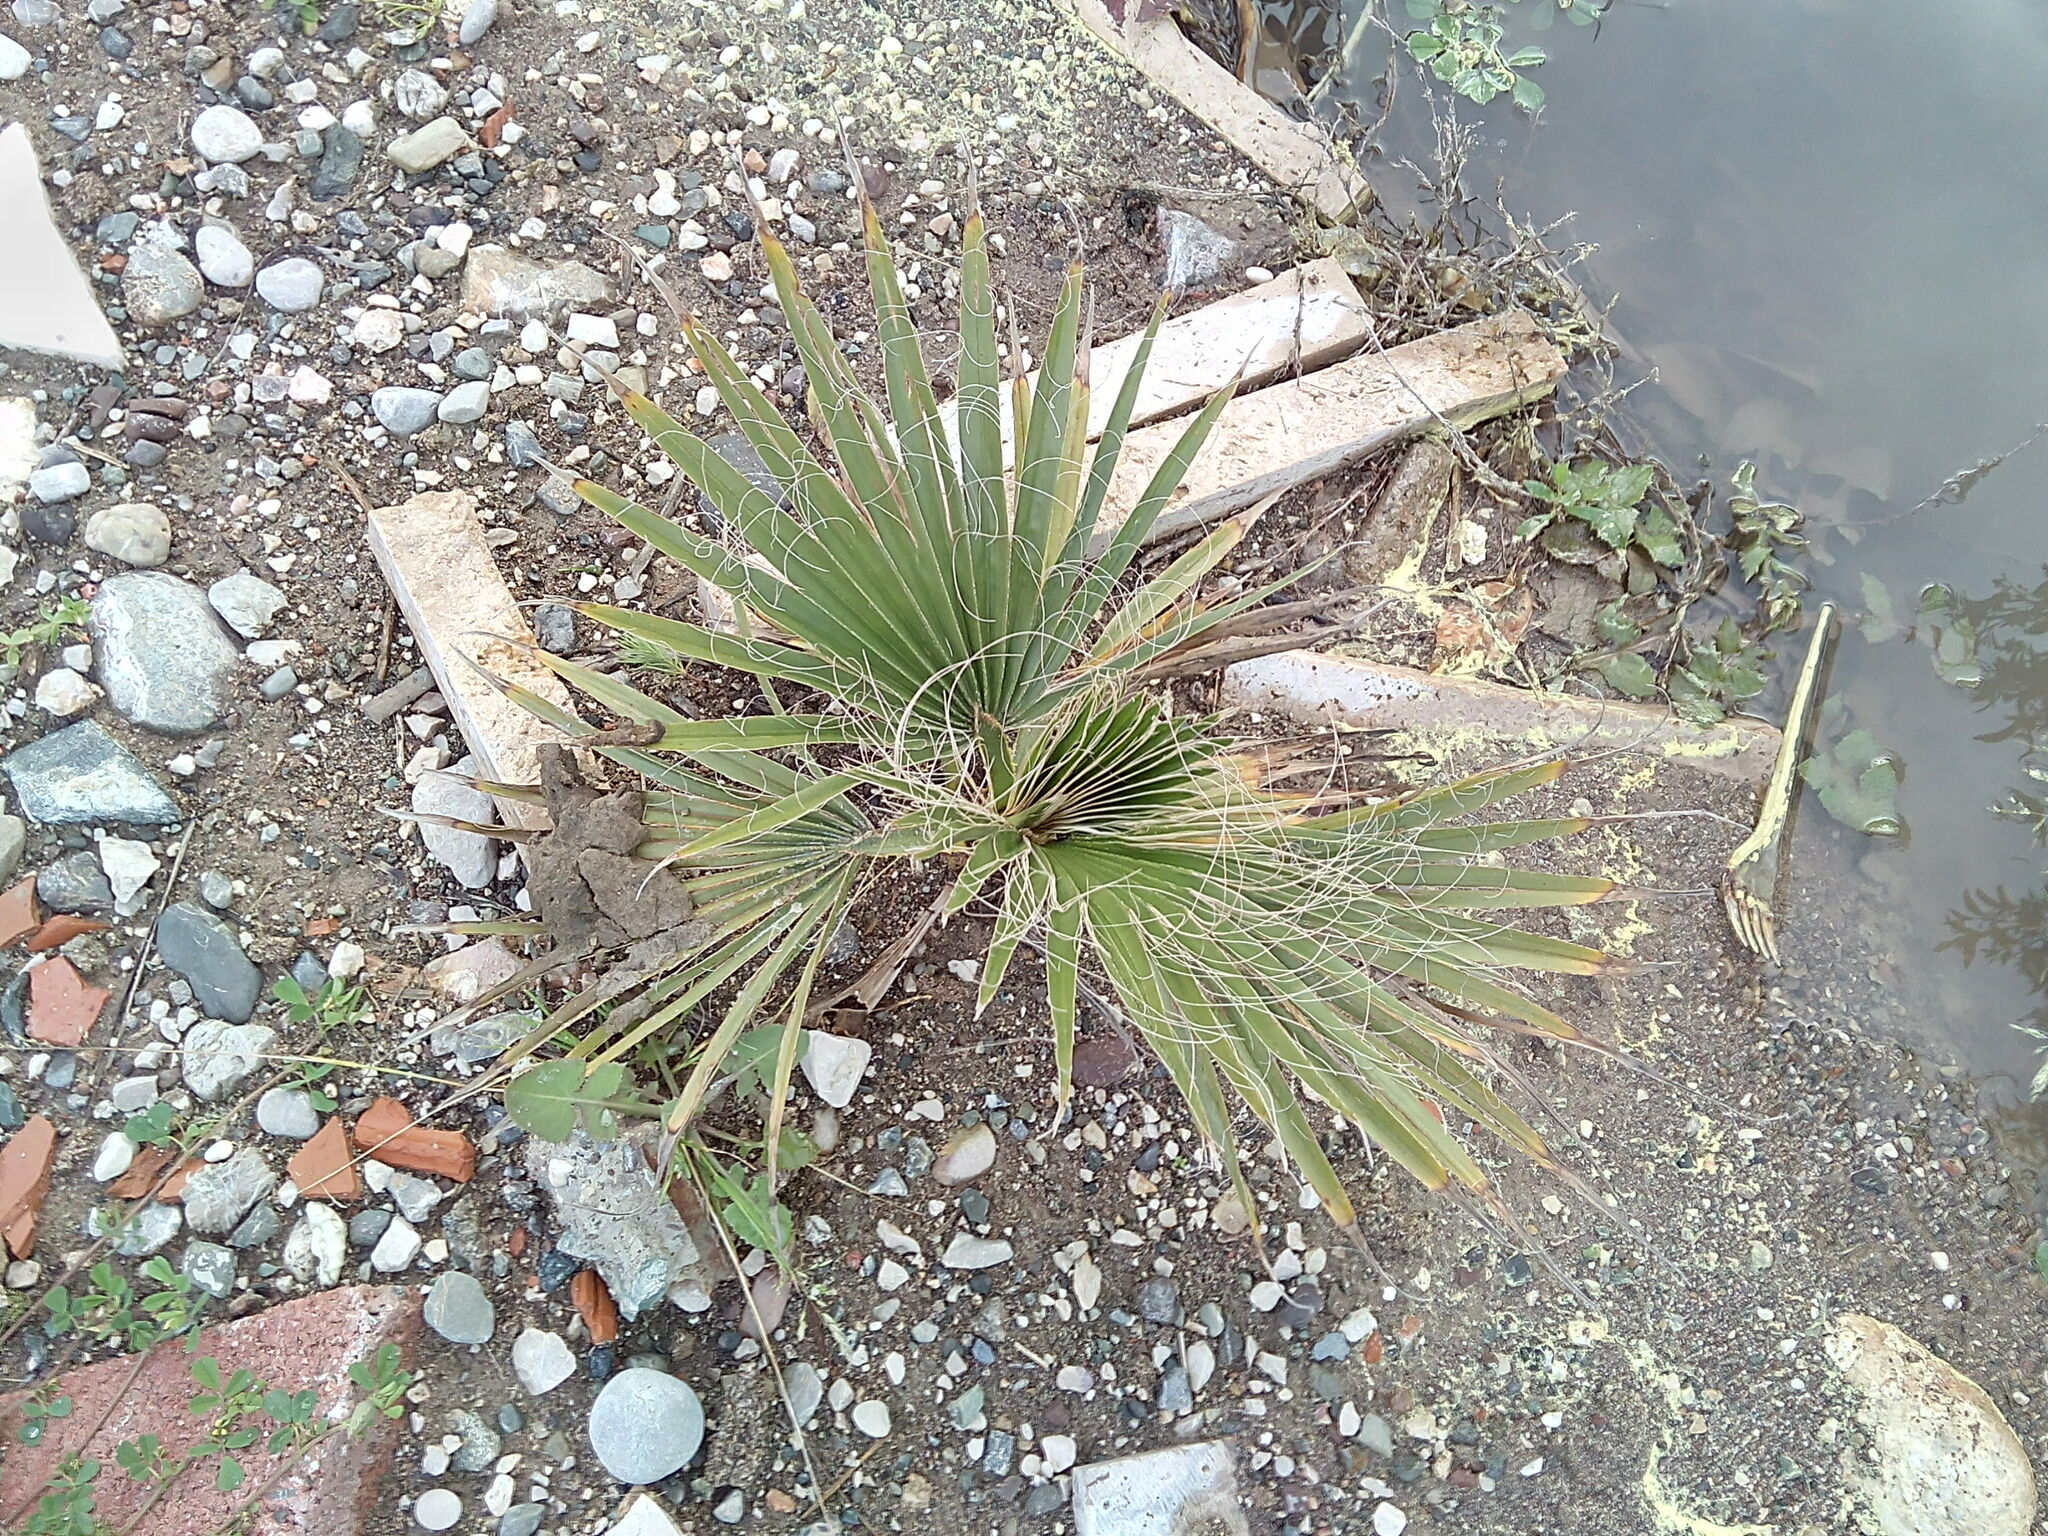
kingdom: Plantae
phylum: Tracheophyta
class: Liliopsida
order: Arecales
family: Arecaceae
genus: Washingtonia
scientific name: Washingtonia robusta
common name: Mexican fan palm
